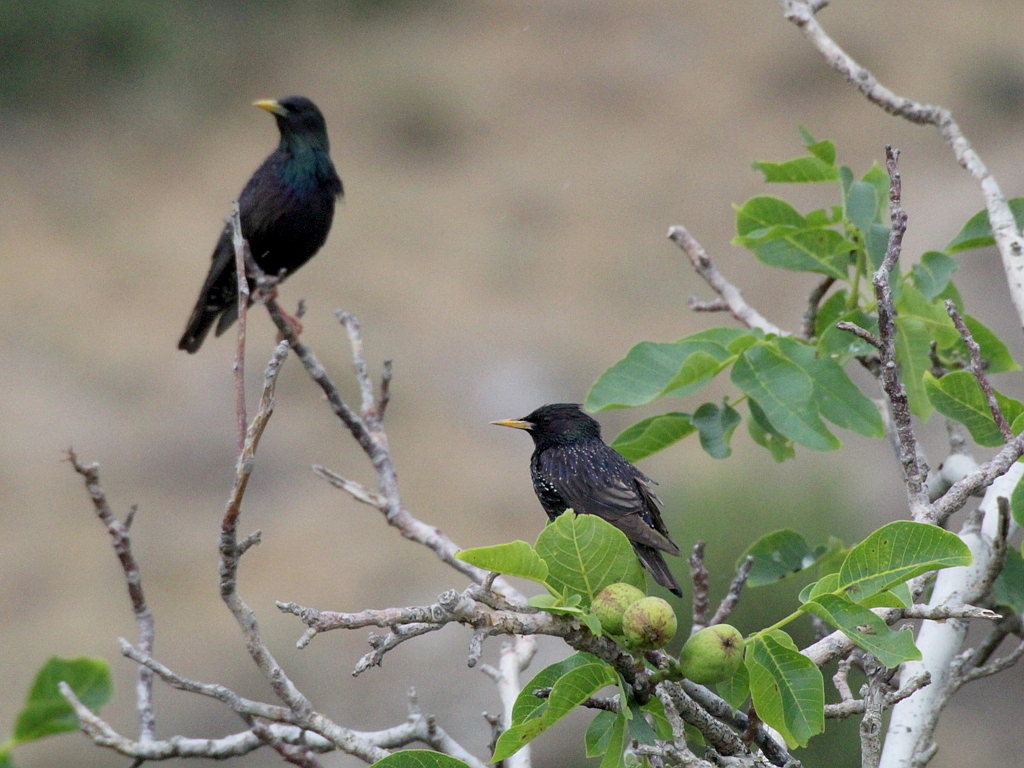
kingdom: Animalia
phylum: Chordata
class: Aves
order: Passeriformes
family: Sturnidae
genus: Sturnus
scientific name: Sturnus vulgaris
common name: Common starling
